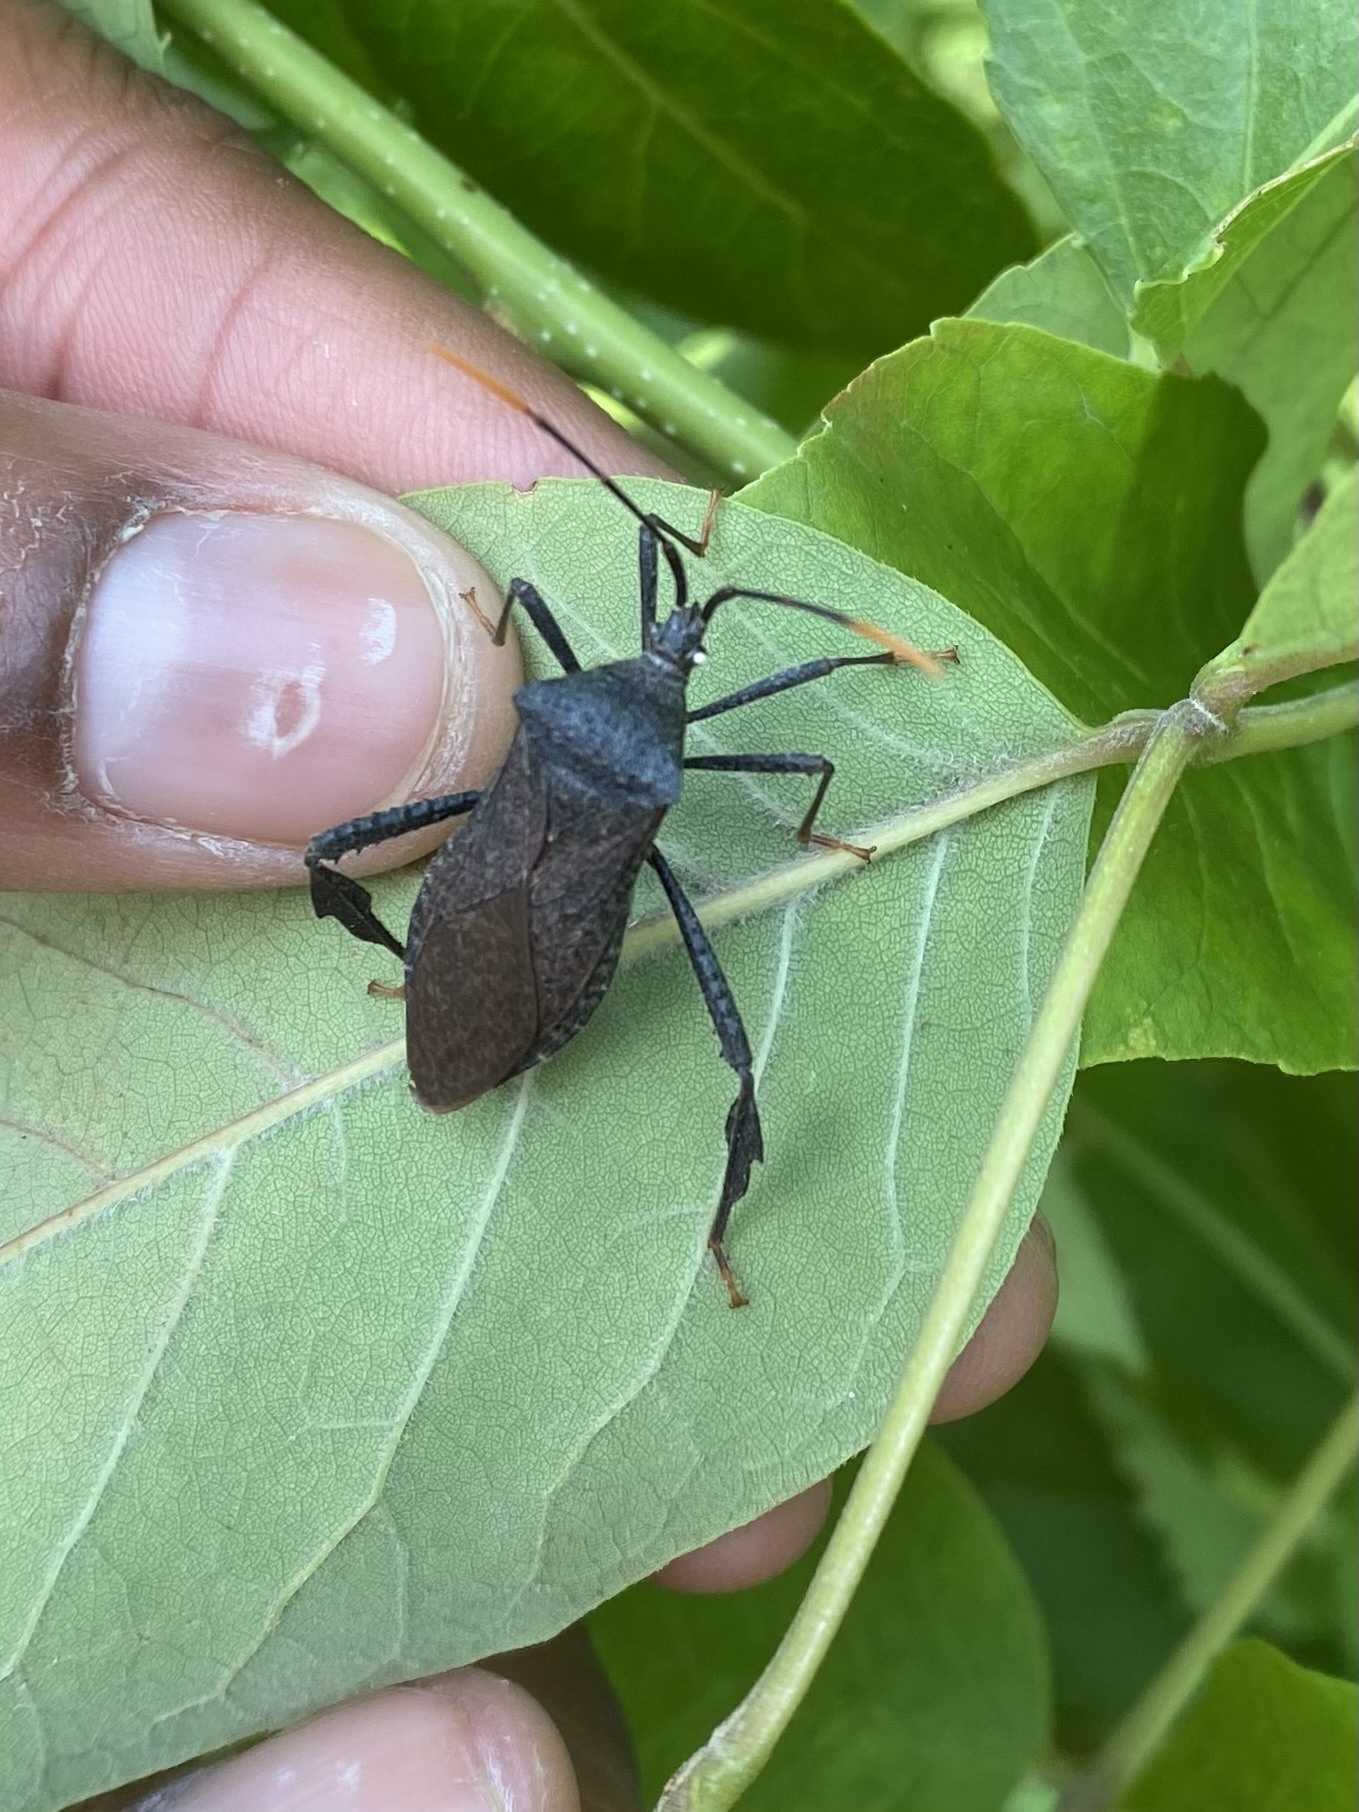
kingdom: Animalia
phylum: Arthropoda
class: Insecta
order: Hemiptera
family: Coreidae
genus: Acanthocephala
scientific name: Acanthocephala terminalis
